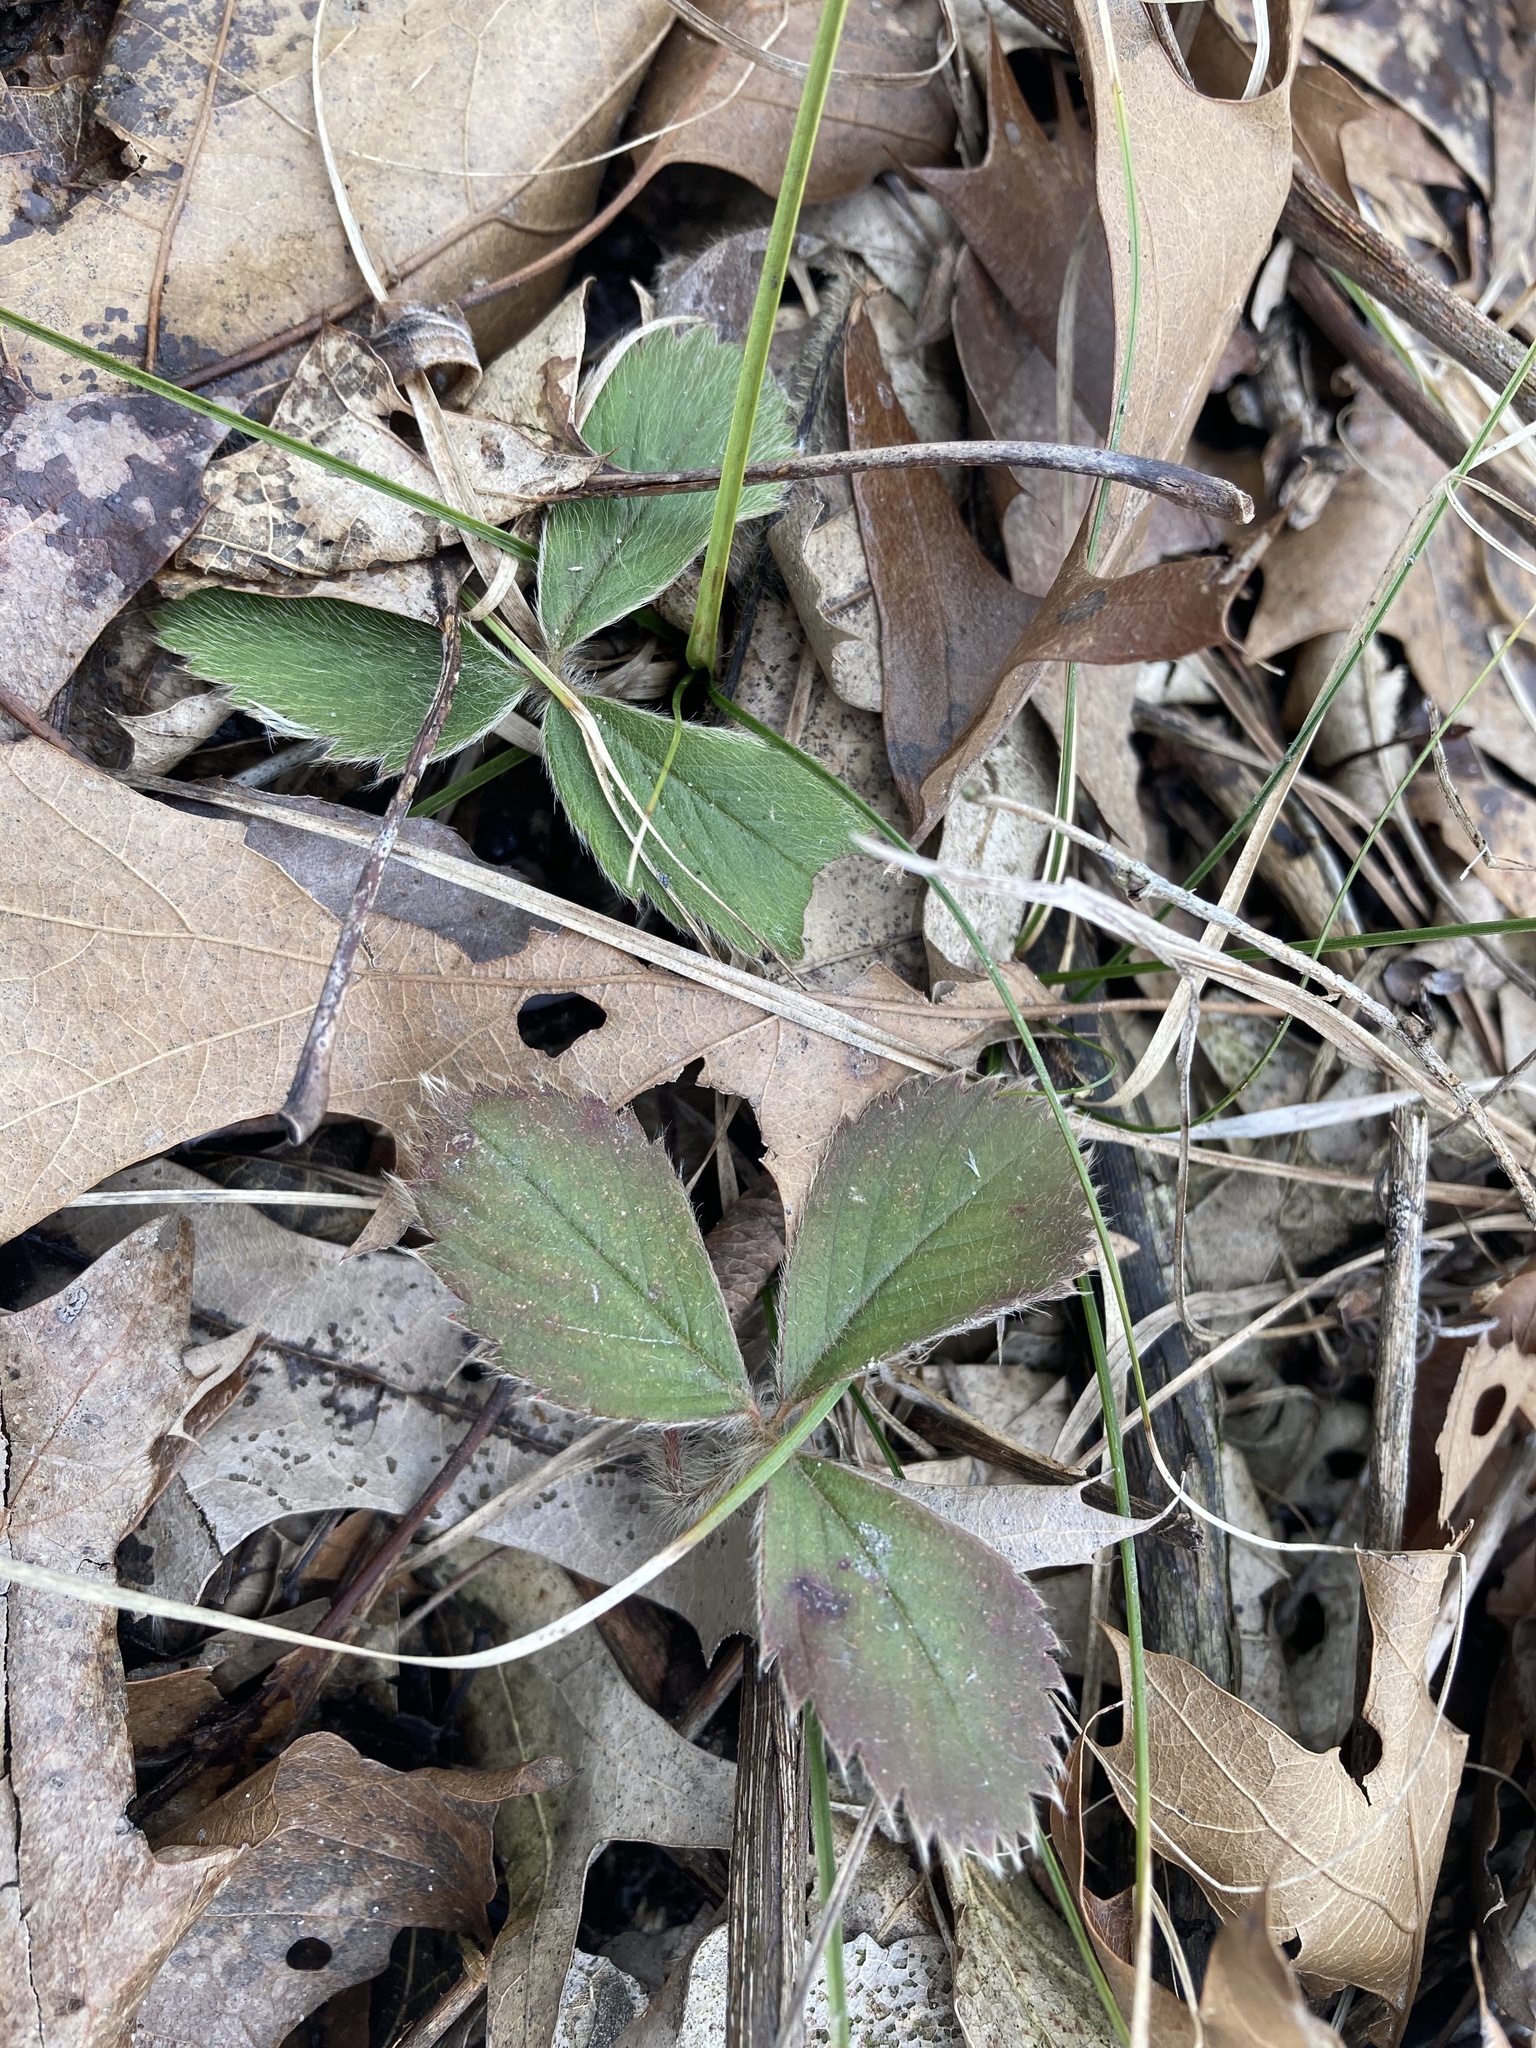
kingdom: Plantae
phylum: Tracheophyta
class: Magnoliopsida
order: Rosales
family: Rosaceae
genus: Fragaria
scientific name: Fragaria virginiana
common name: Thickleaved wild strawberry
